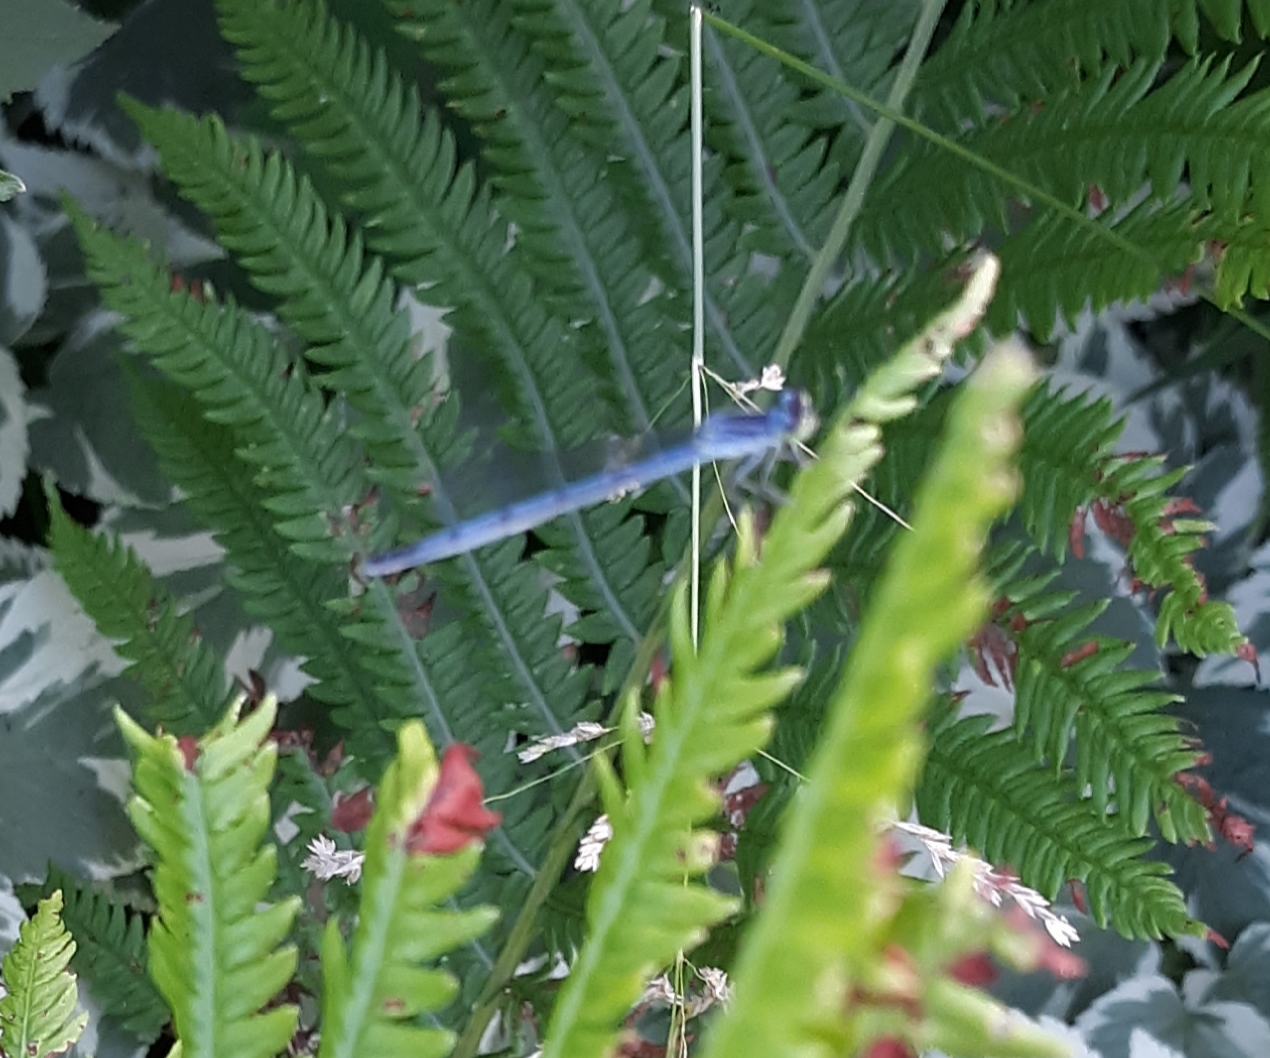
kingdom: Animalia
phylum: Arthropoda
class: Insecta
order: Odonata
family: Coenagrionidae
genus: Ischnura
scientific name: Ischnura verticalis
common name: Eastern forktail
